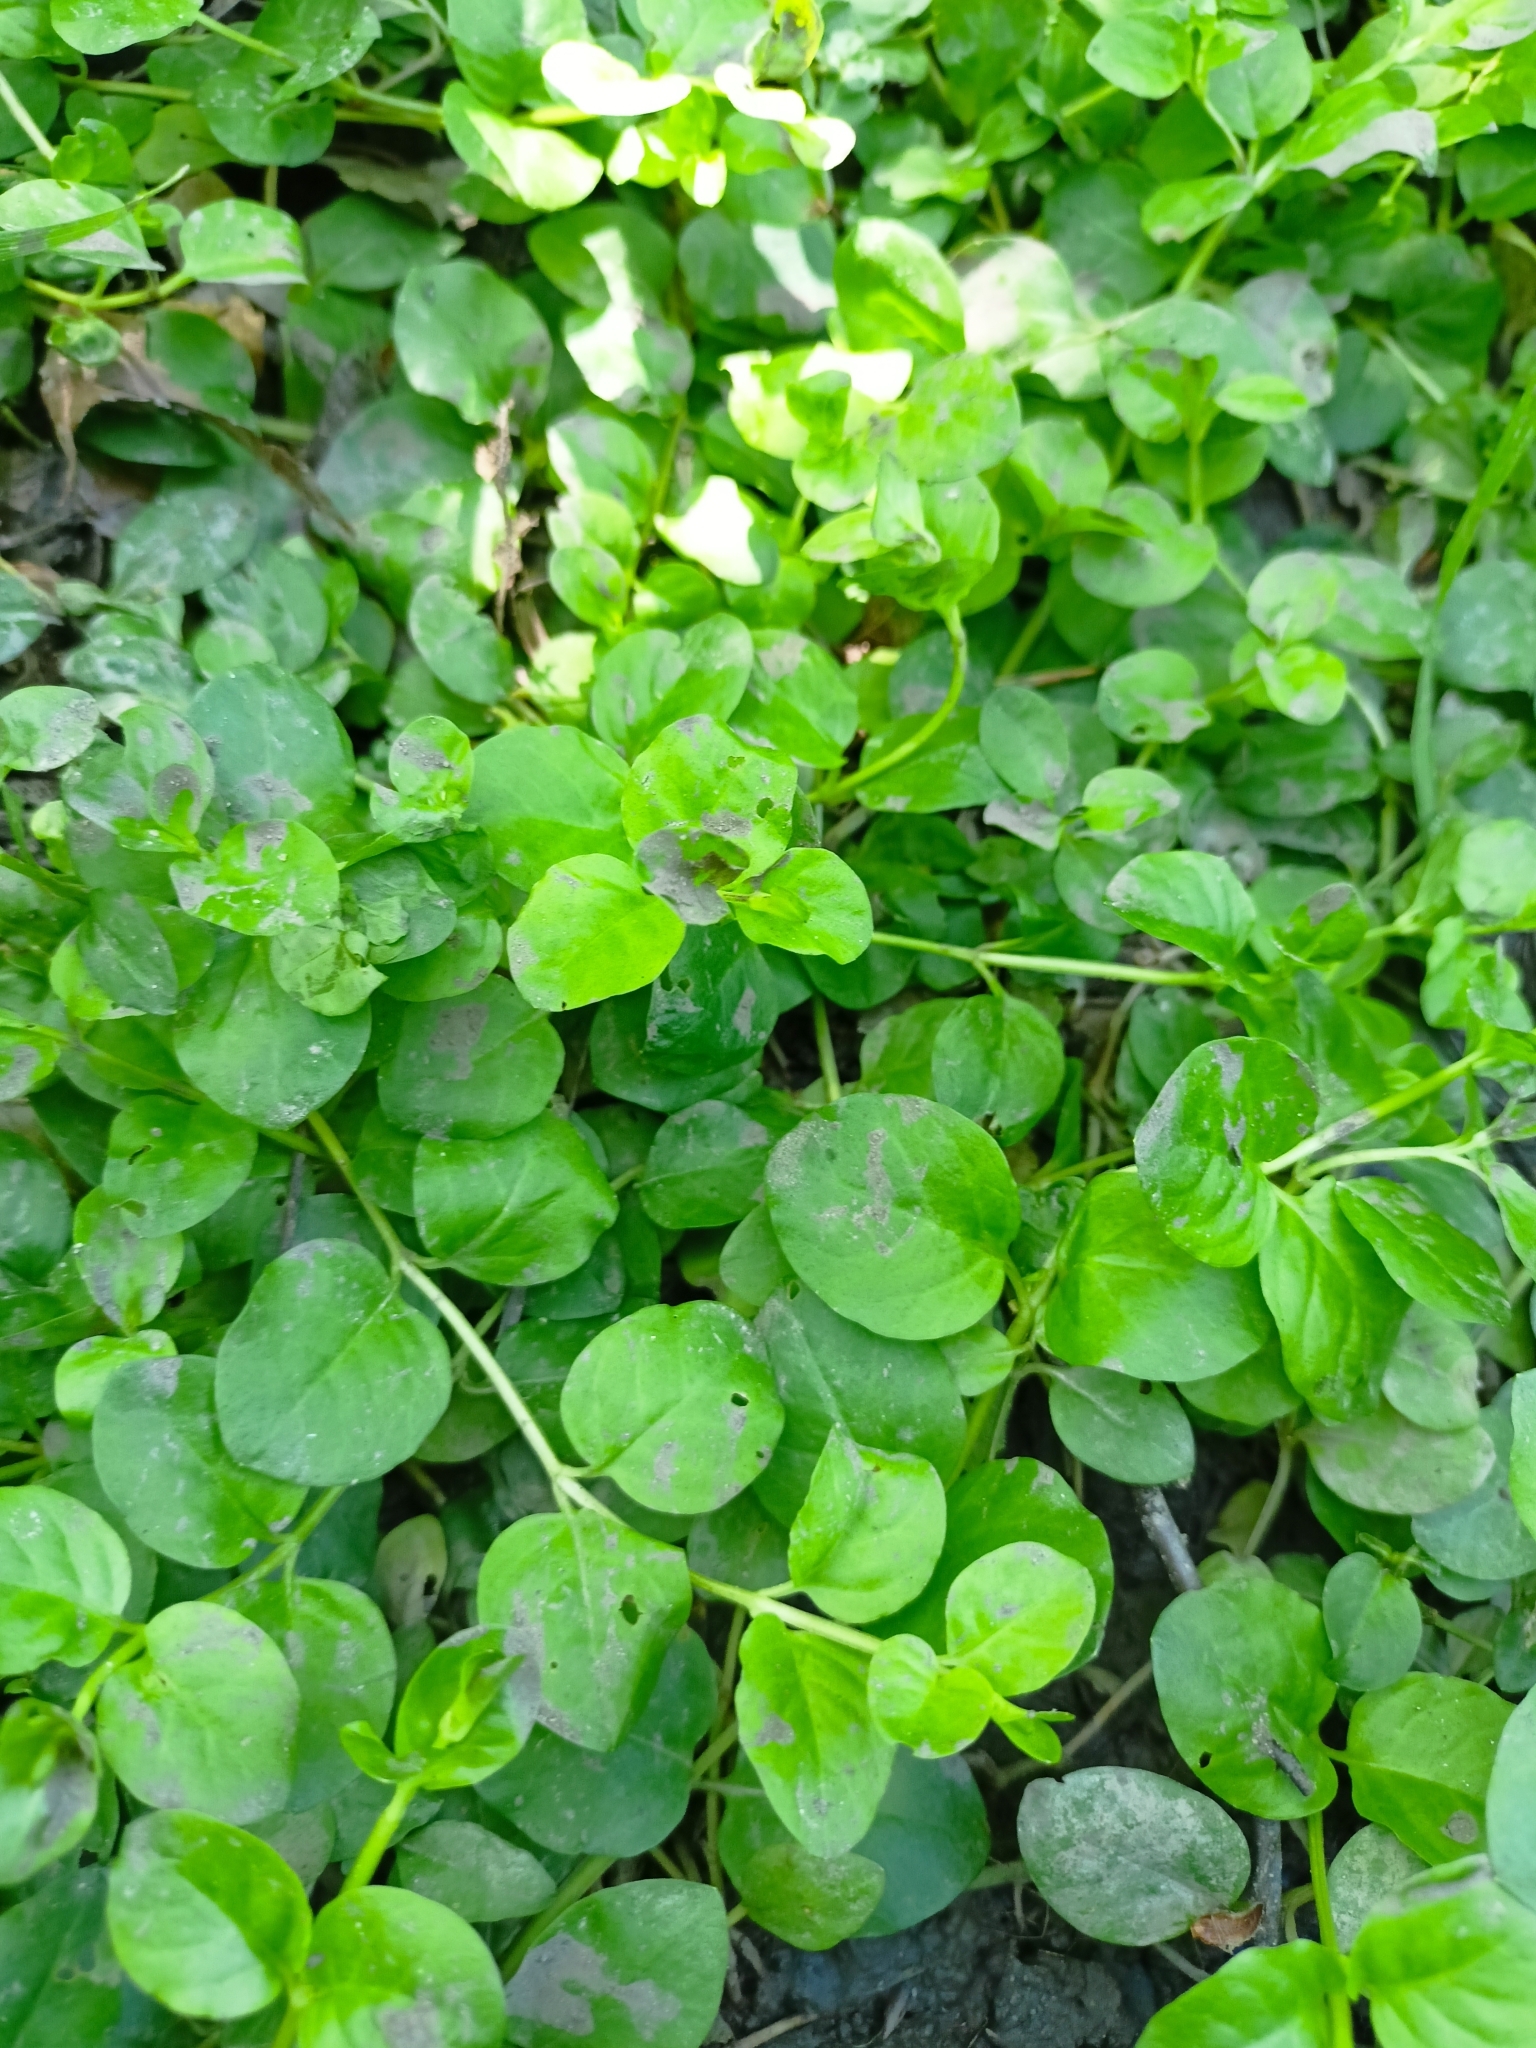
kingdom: Plantae
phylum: Tracheophyta
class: Magnoliopsida
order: Ericales
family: Primulaceae
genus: Lysimachia
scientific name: Lysimachia nummularia
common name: Moneywort
